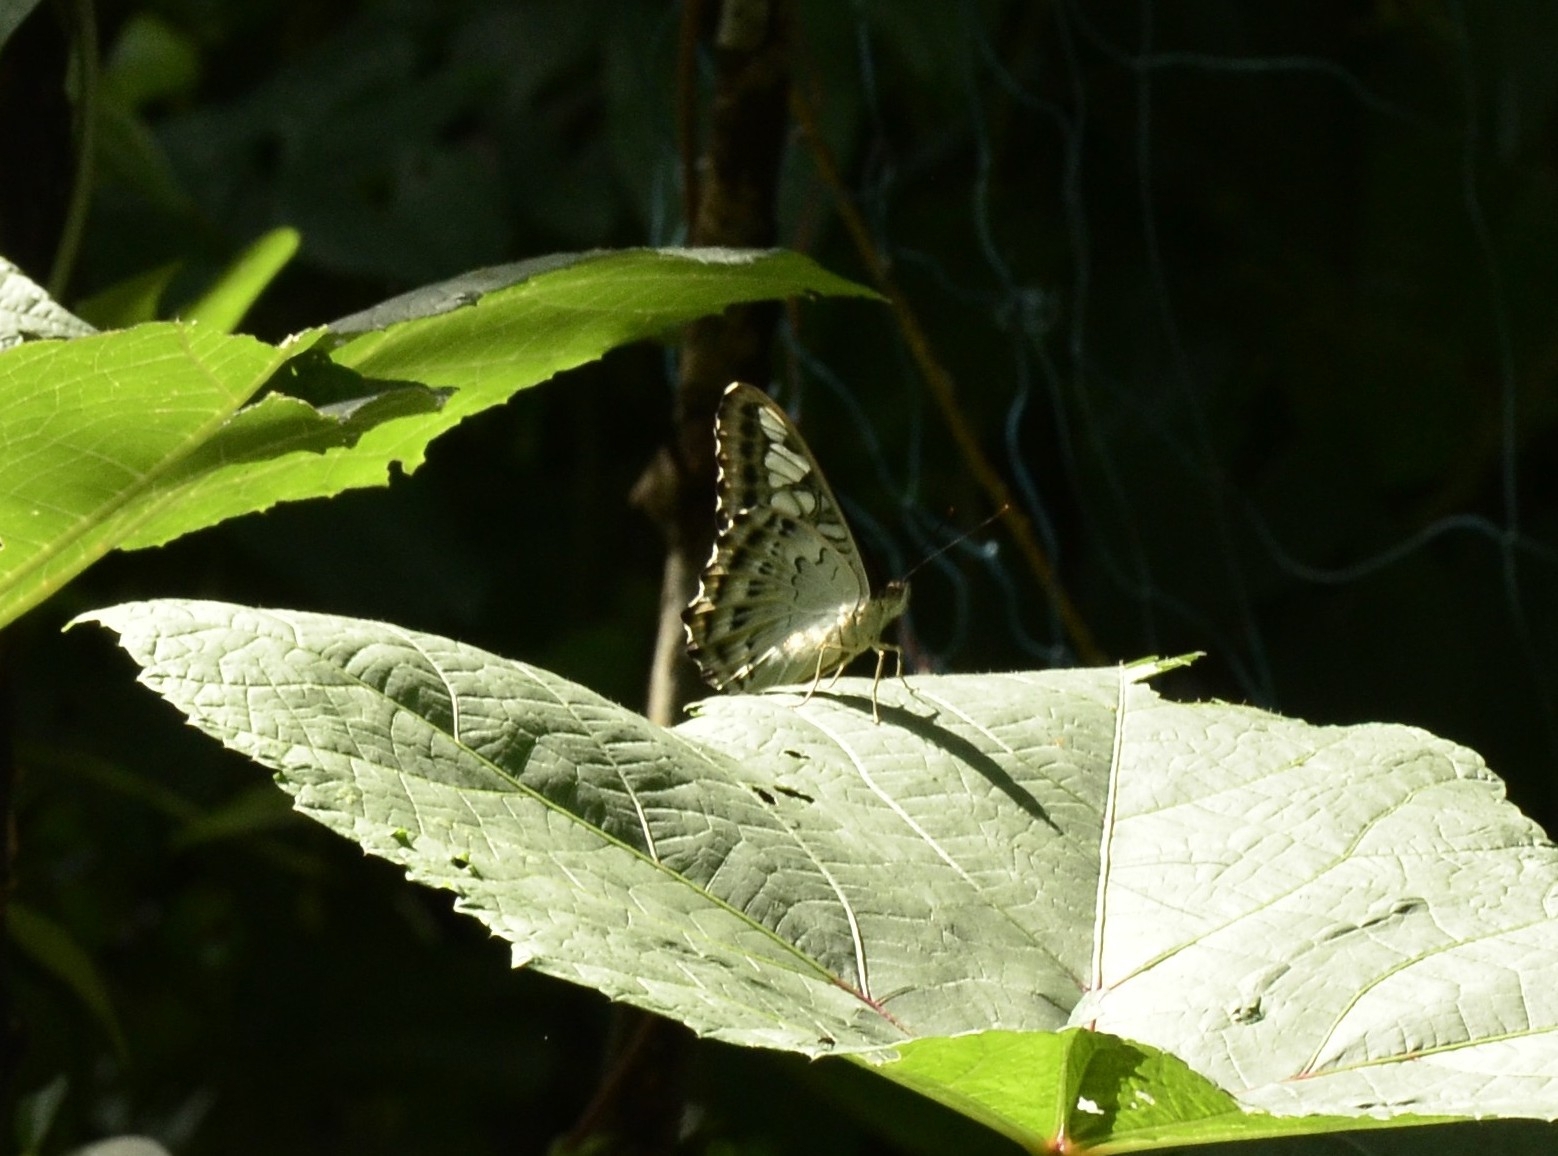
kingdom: Animalia
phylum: Arthropoda
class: Insecta
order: Lepidoptera
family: Nymphalidae
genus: Kallima
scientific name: Kallima sylvia
